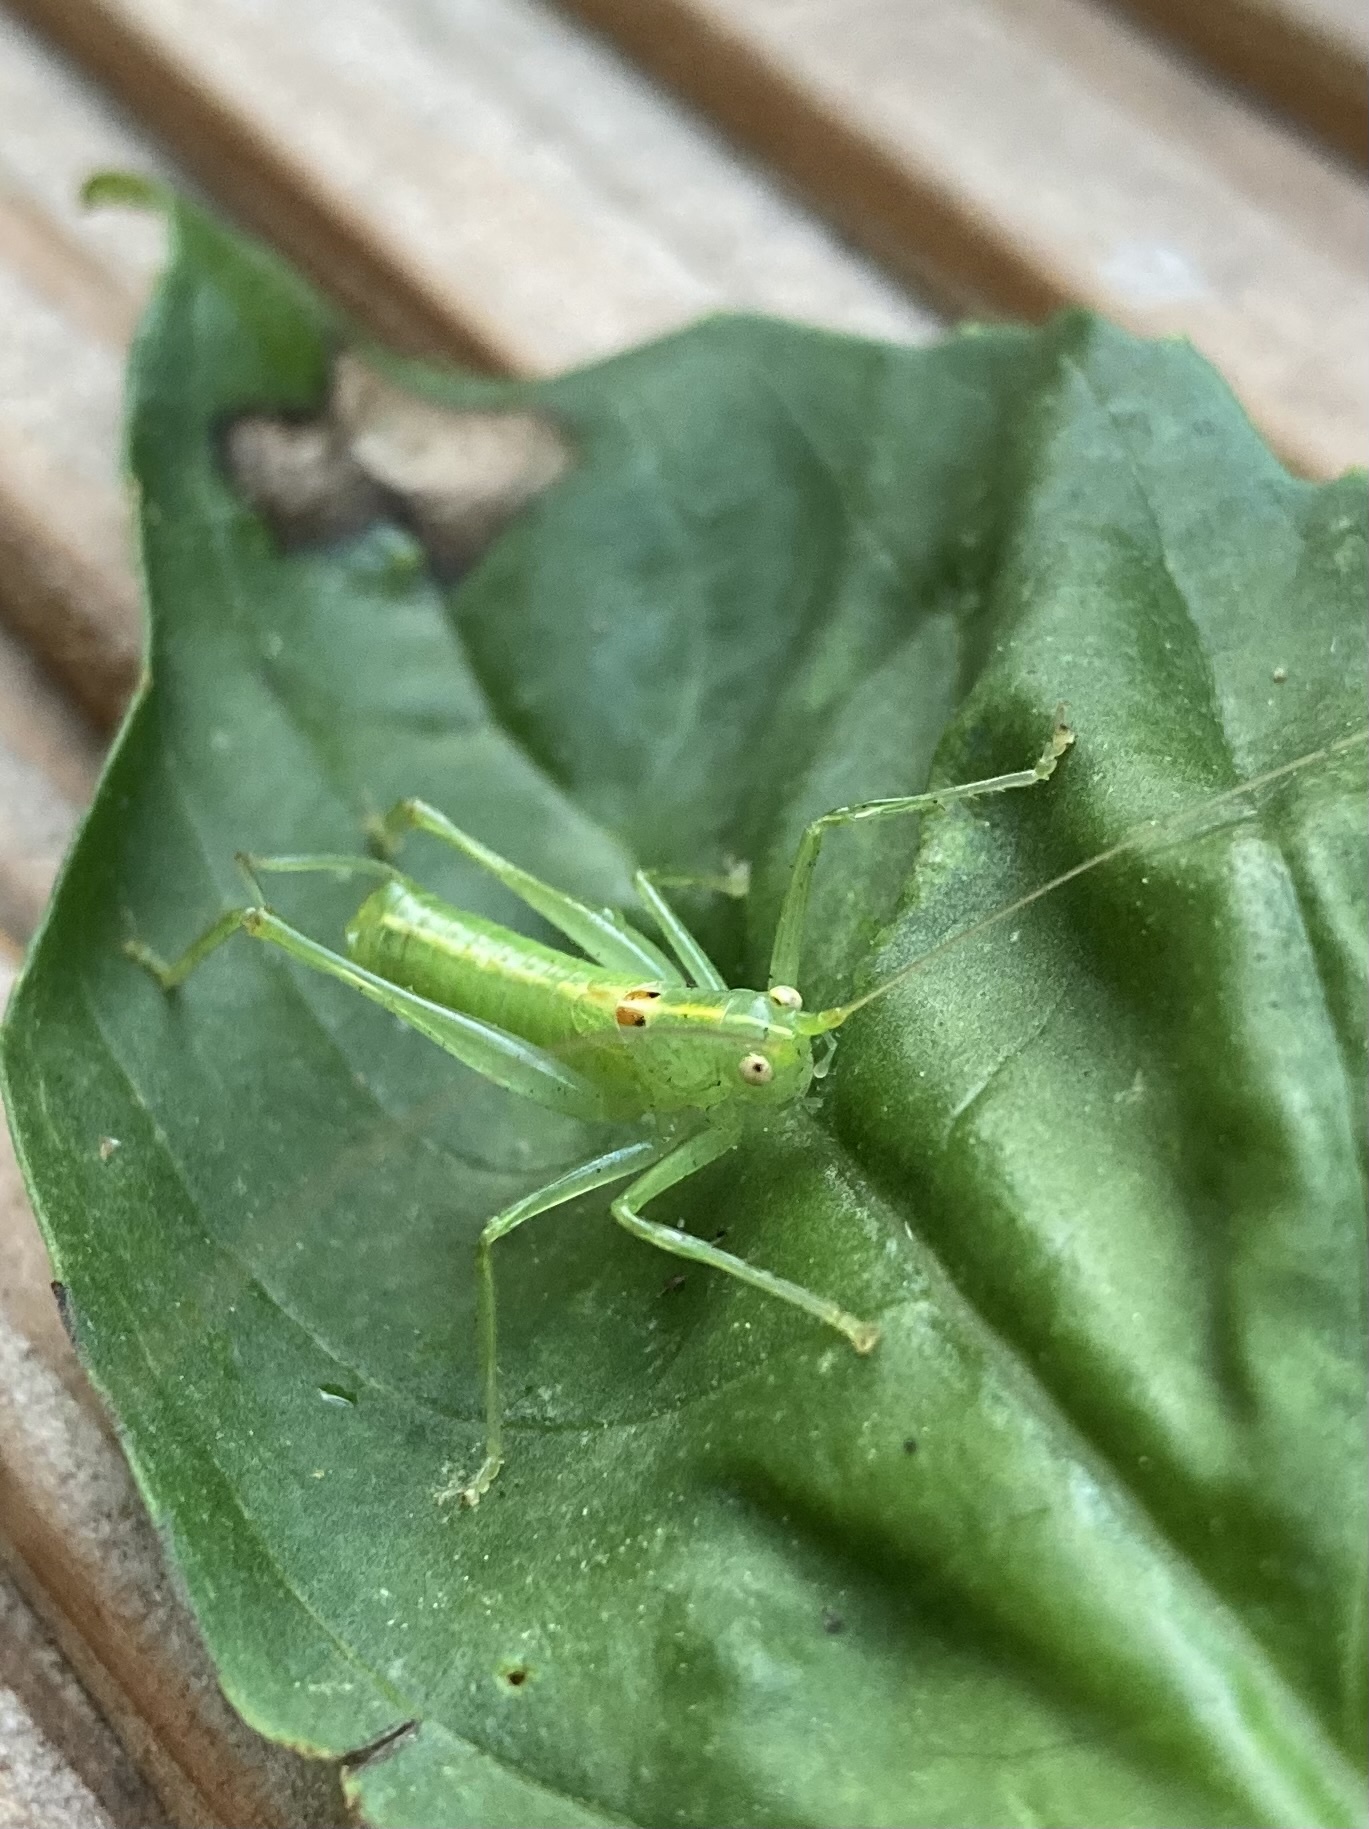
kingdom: Animalia
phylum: Arthropoda
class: Insecta
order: Orthoptera
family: Tettigoniidae
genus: Meconema
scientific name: Meconema meridionale
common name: Southern oak bush-cricket
